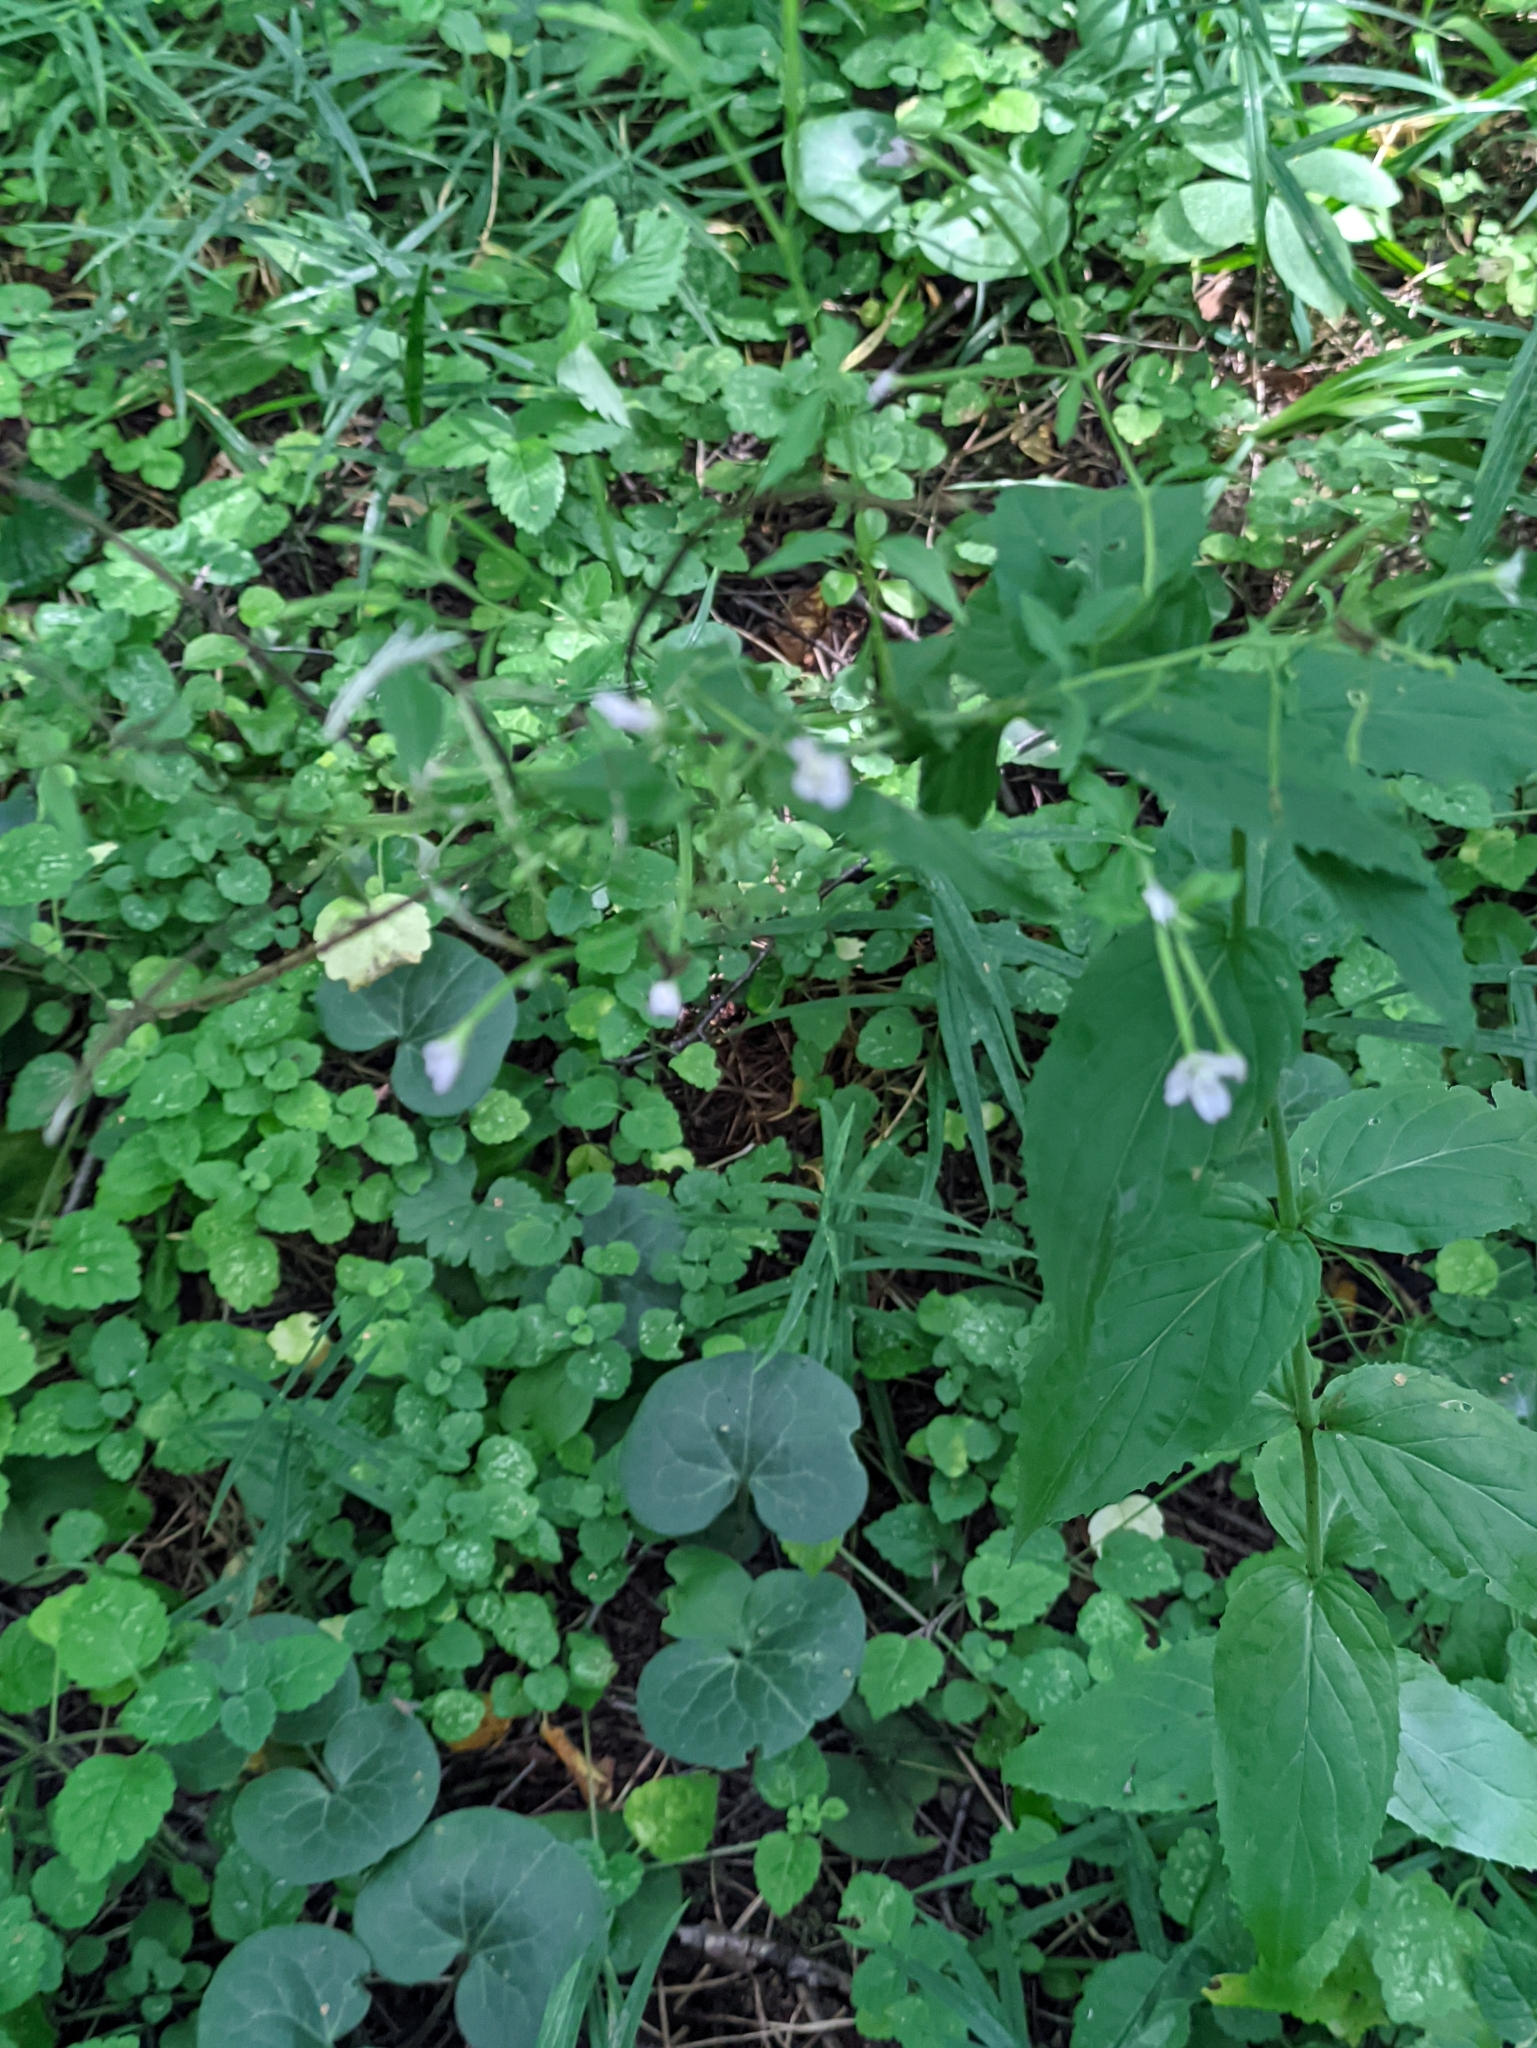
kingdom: Plantae
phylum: Tracheophyta
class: Magnoliopsida
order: Myrtales
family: Onagraceae
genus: Epilobium
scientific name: Epilobium montanum
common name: Broad-leaved willowherb
